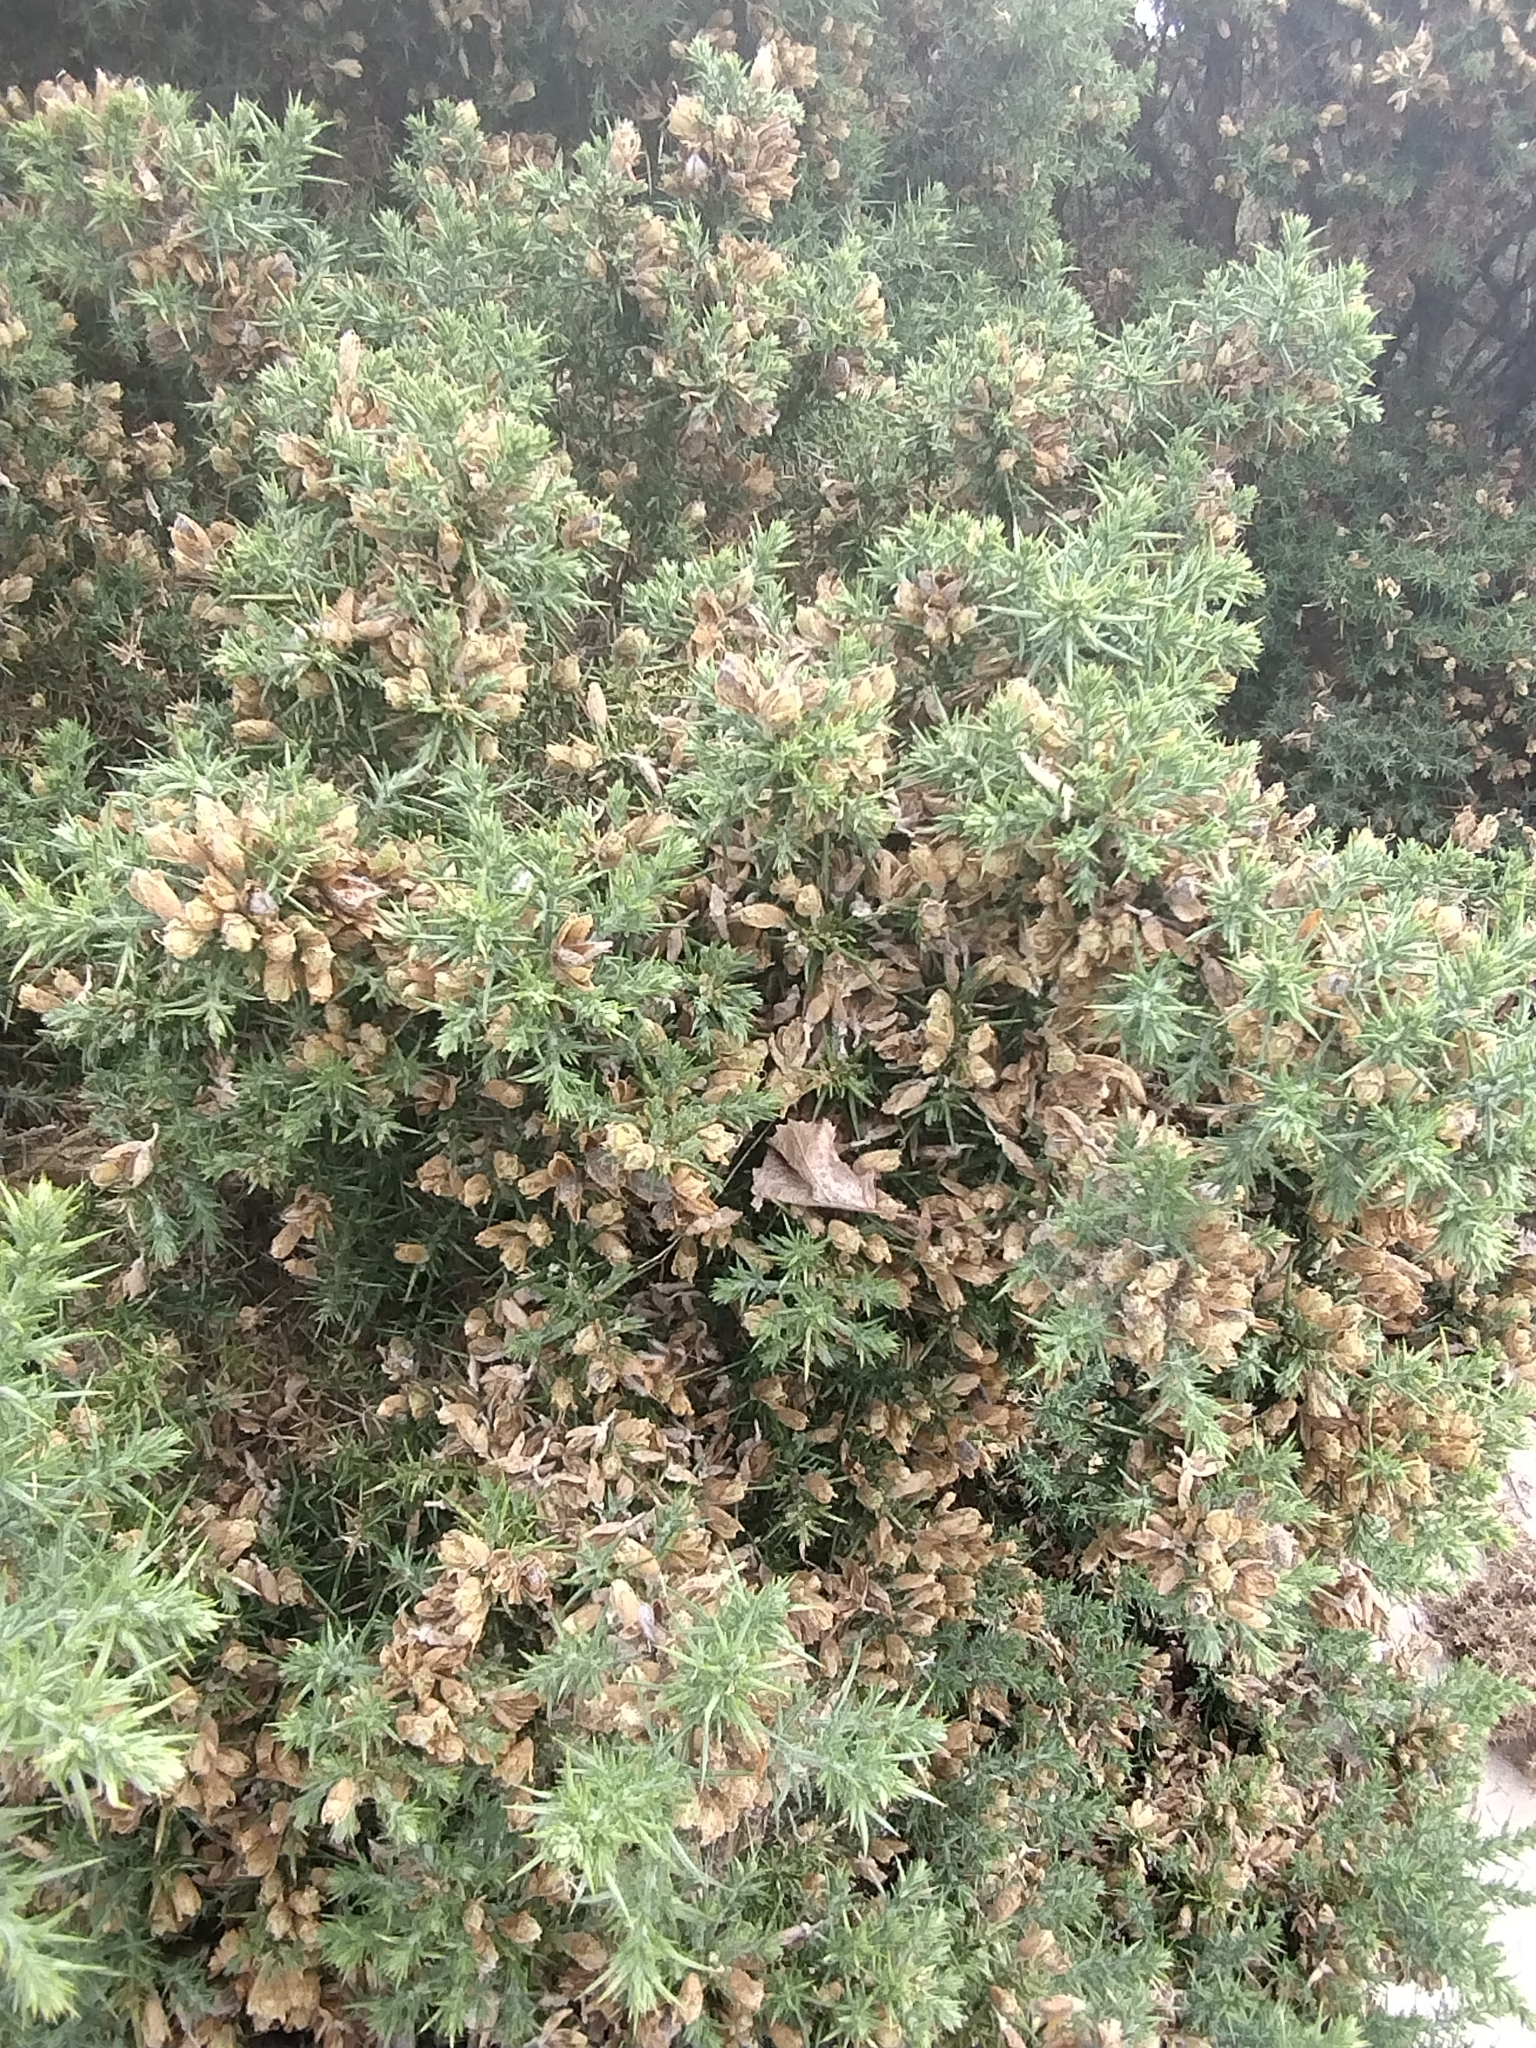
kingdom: Plantae
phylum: Tracheophyta
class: Magnoliopsida
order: Fabales
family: Fabaceae
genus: Ulex
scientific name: Ulex europaeus
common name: Common gorse
